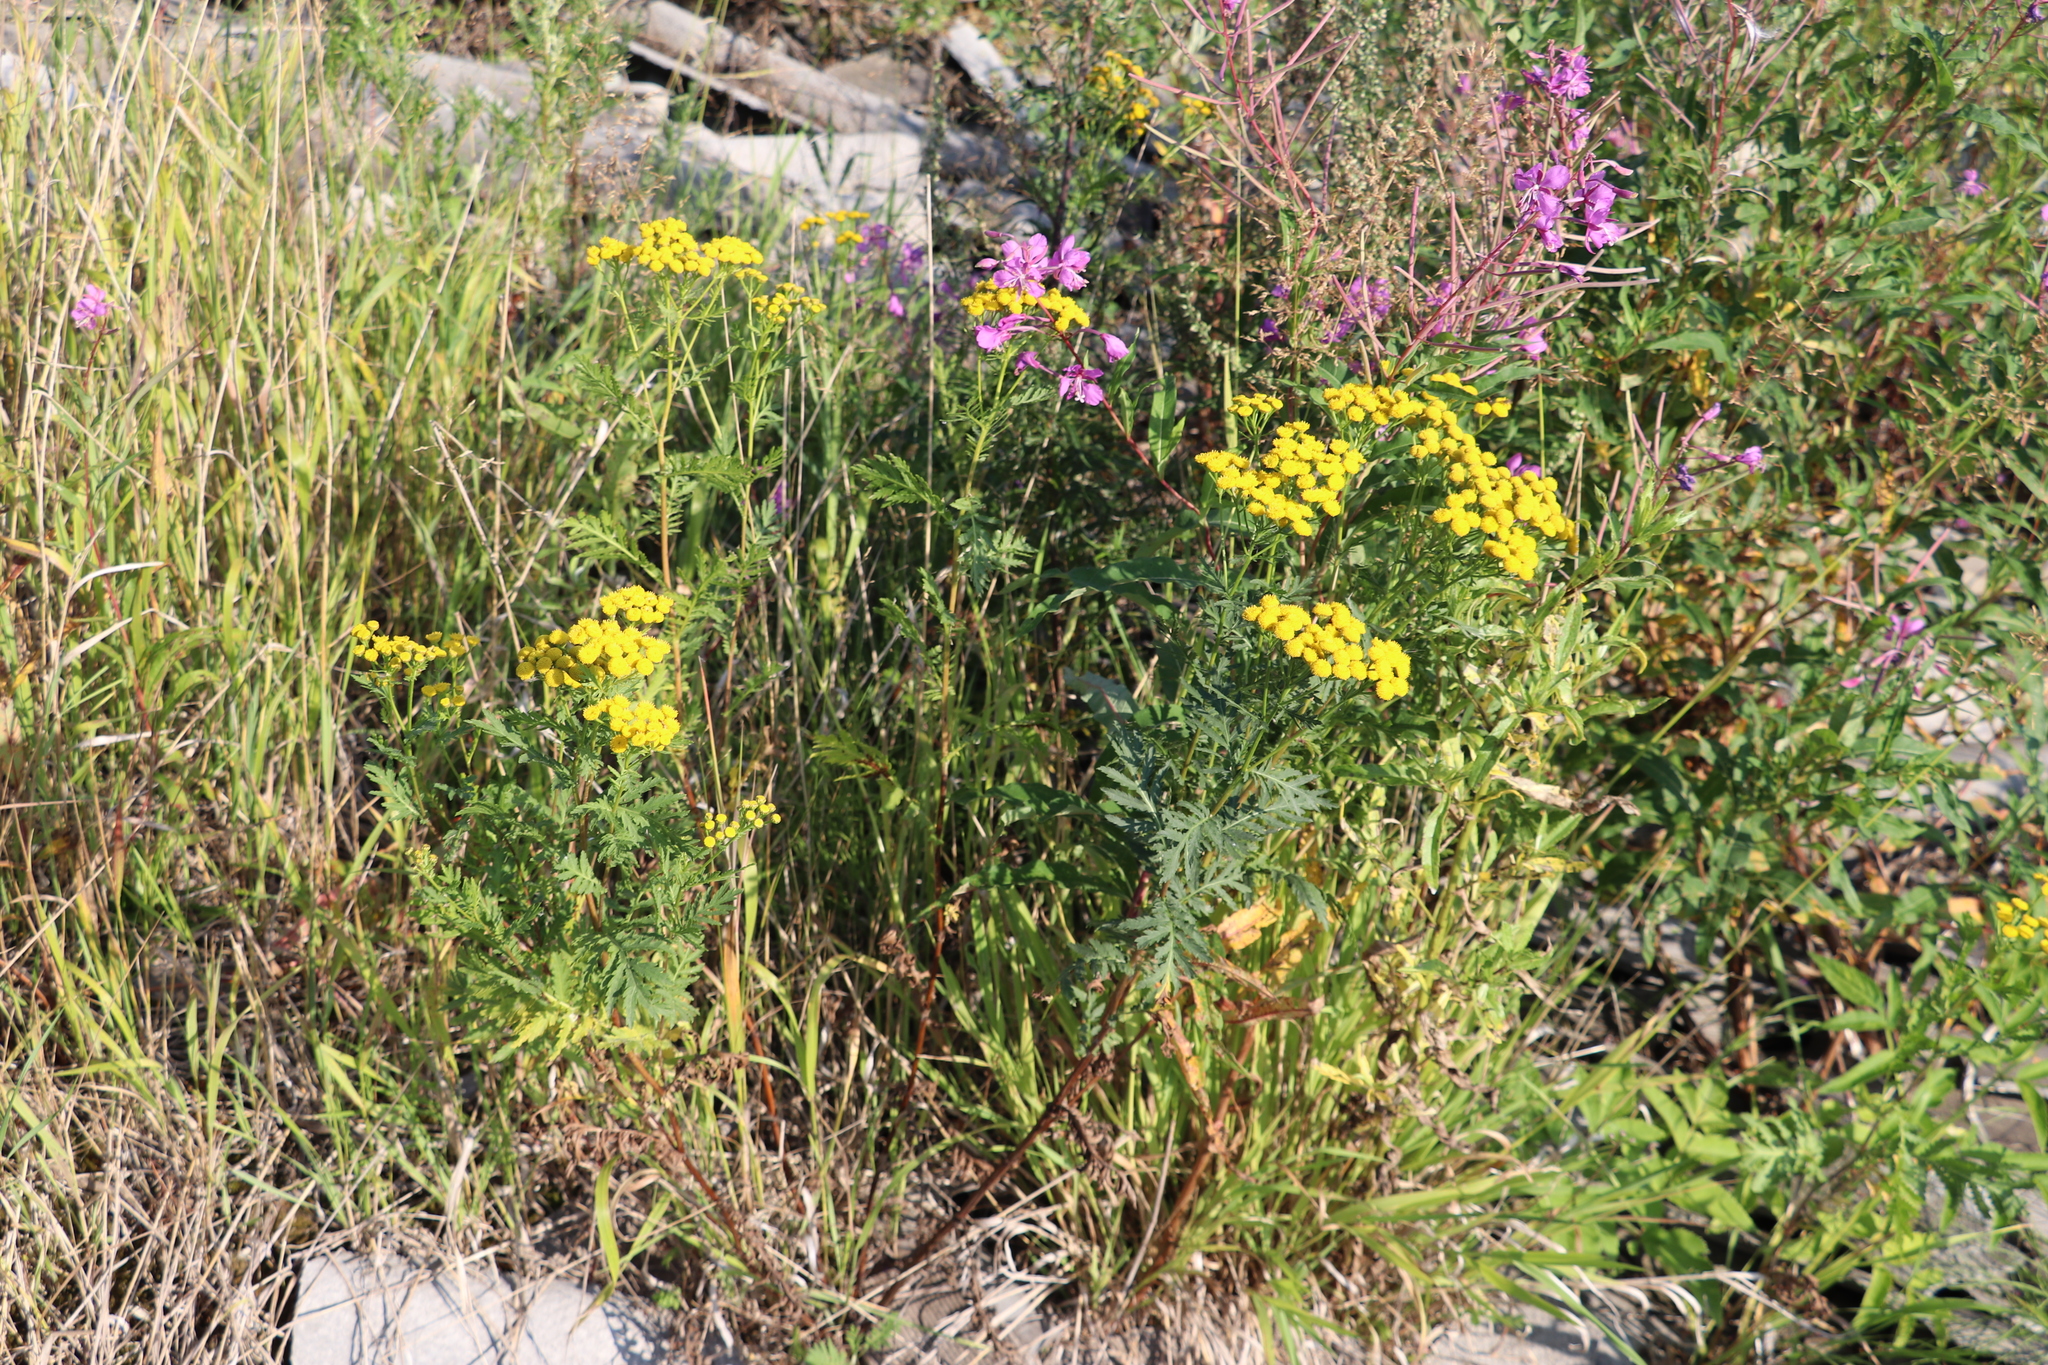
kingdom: Plantae
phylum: Tracheophyta
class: Magnoliopsida
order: Asterales
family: Asteraceae
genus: Tanacetum
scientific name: Tanacetum vulgare
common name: Common tansy
